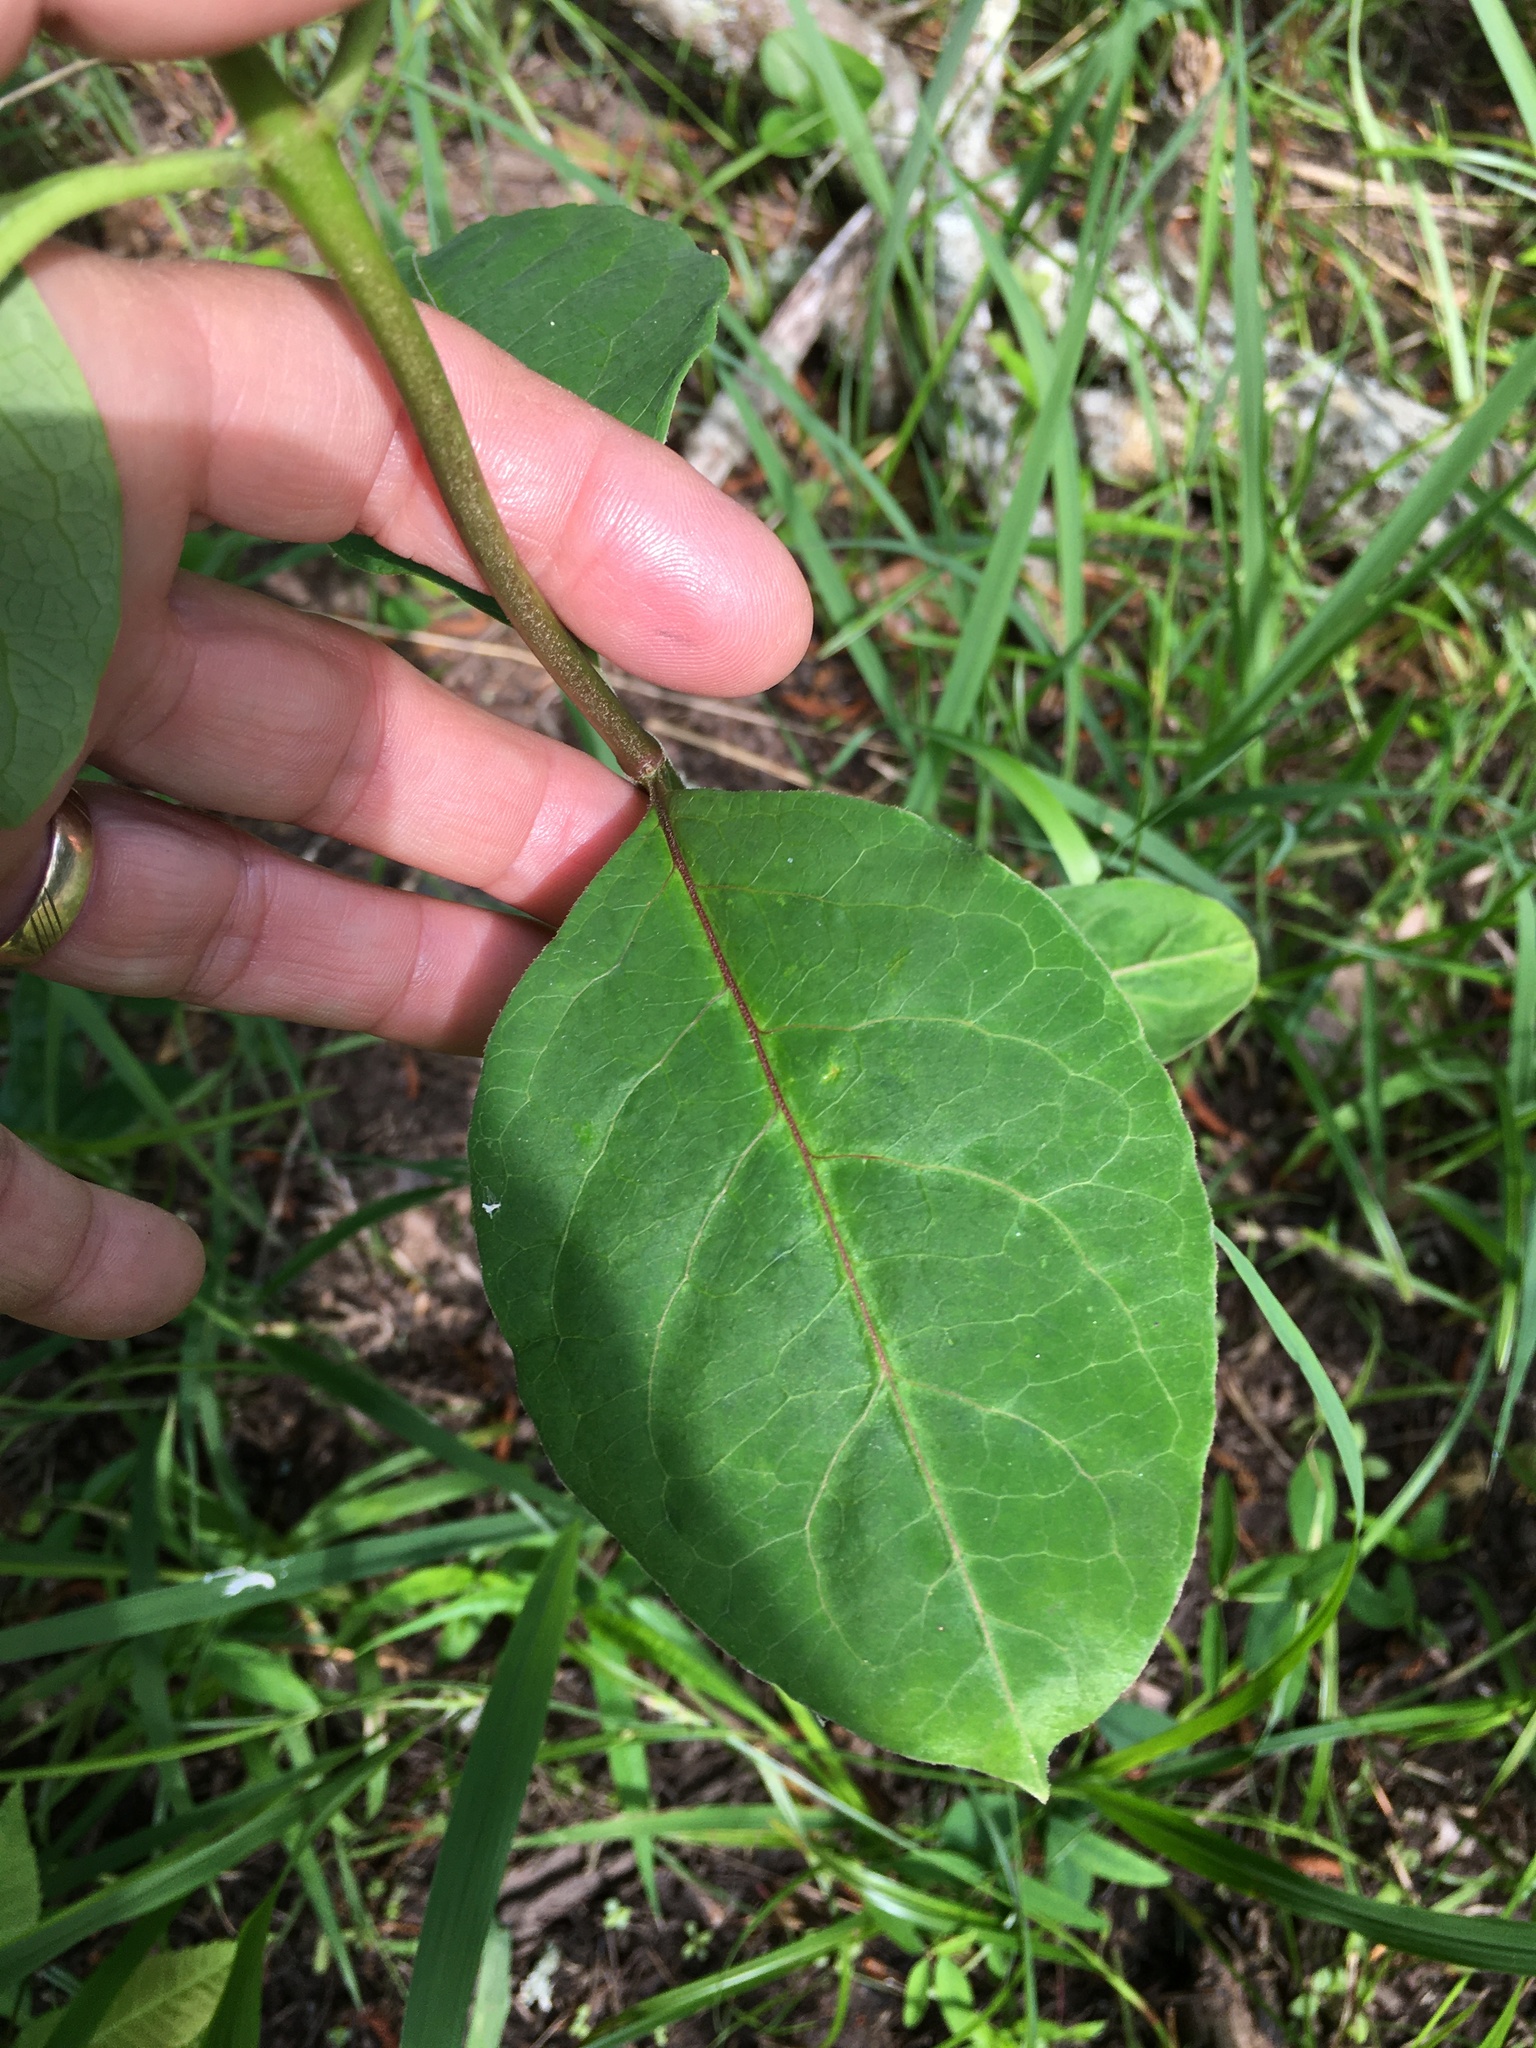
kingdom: Plantae
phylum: Tracheophyta
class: Magnoliopsida
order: Gentianales
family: Apocynaceae
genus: Asclepias
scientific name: Asclepias variegata
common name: Variegated milkweed
